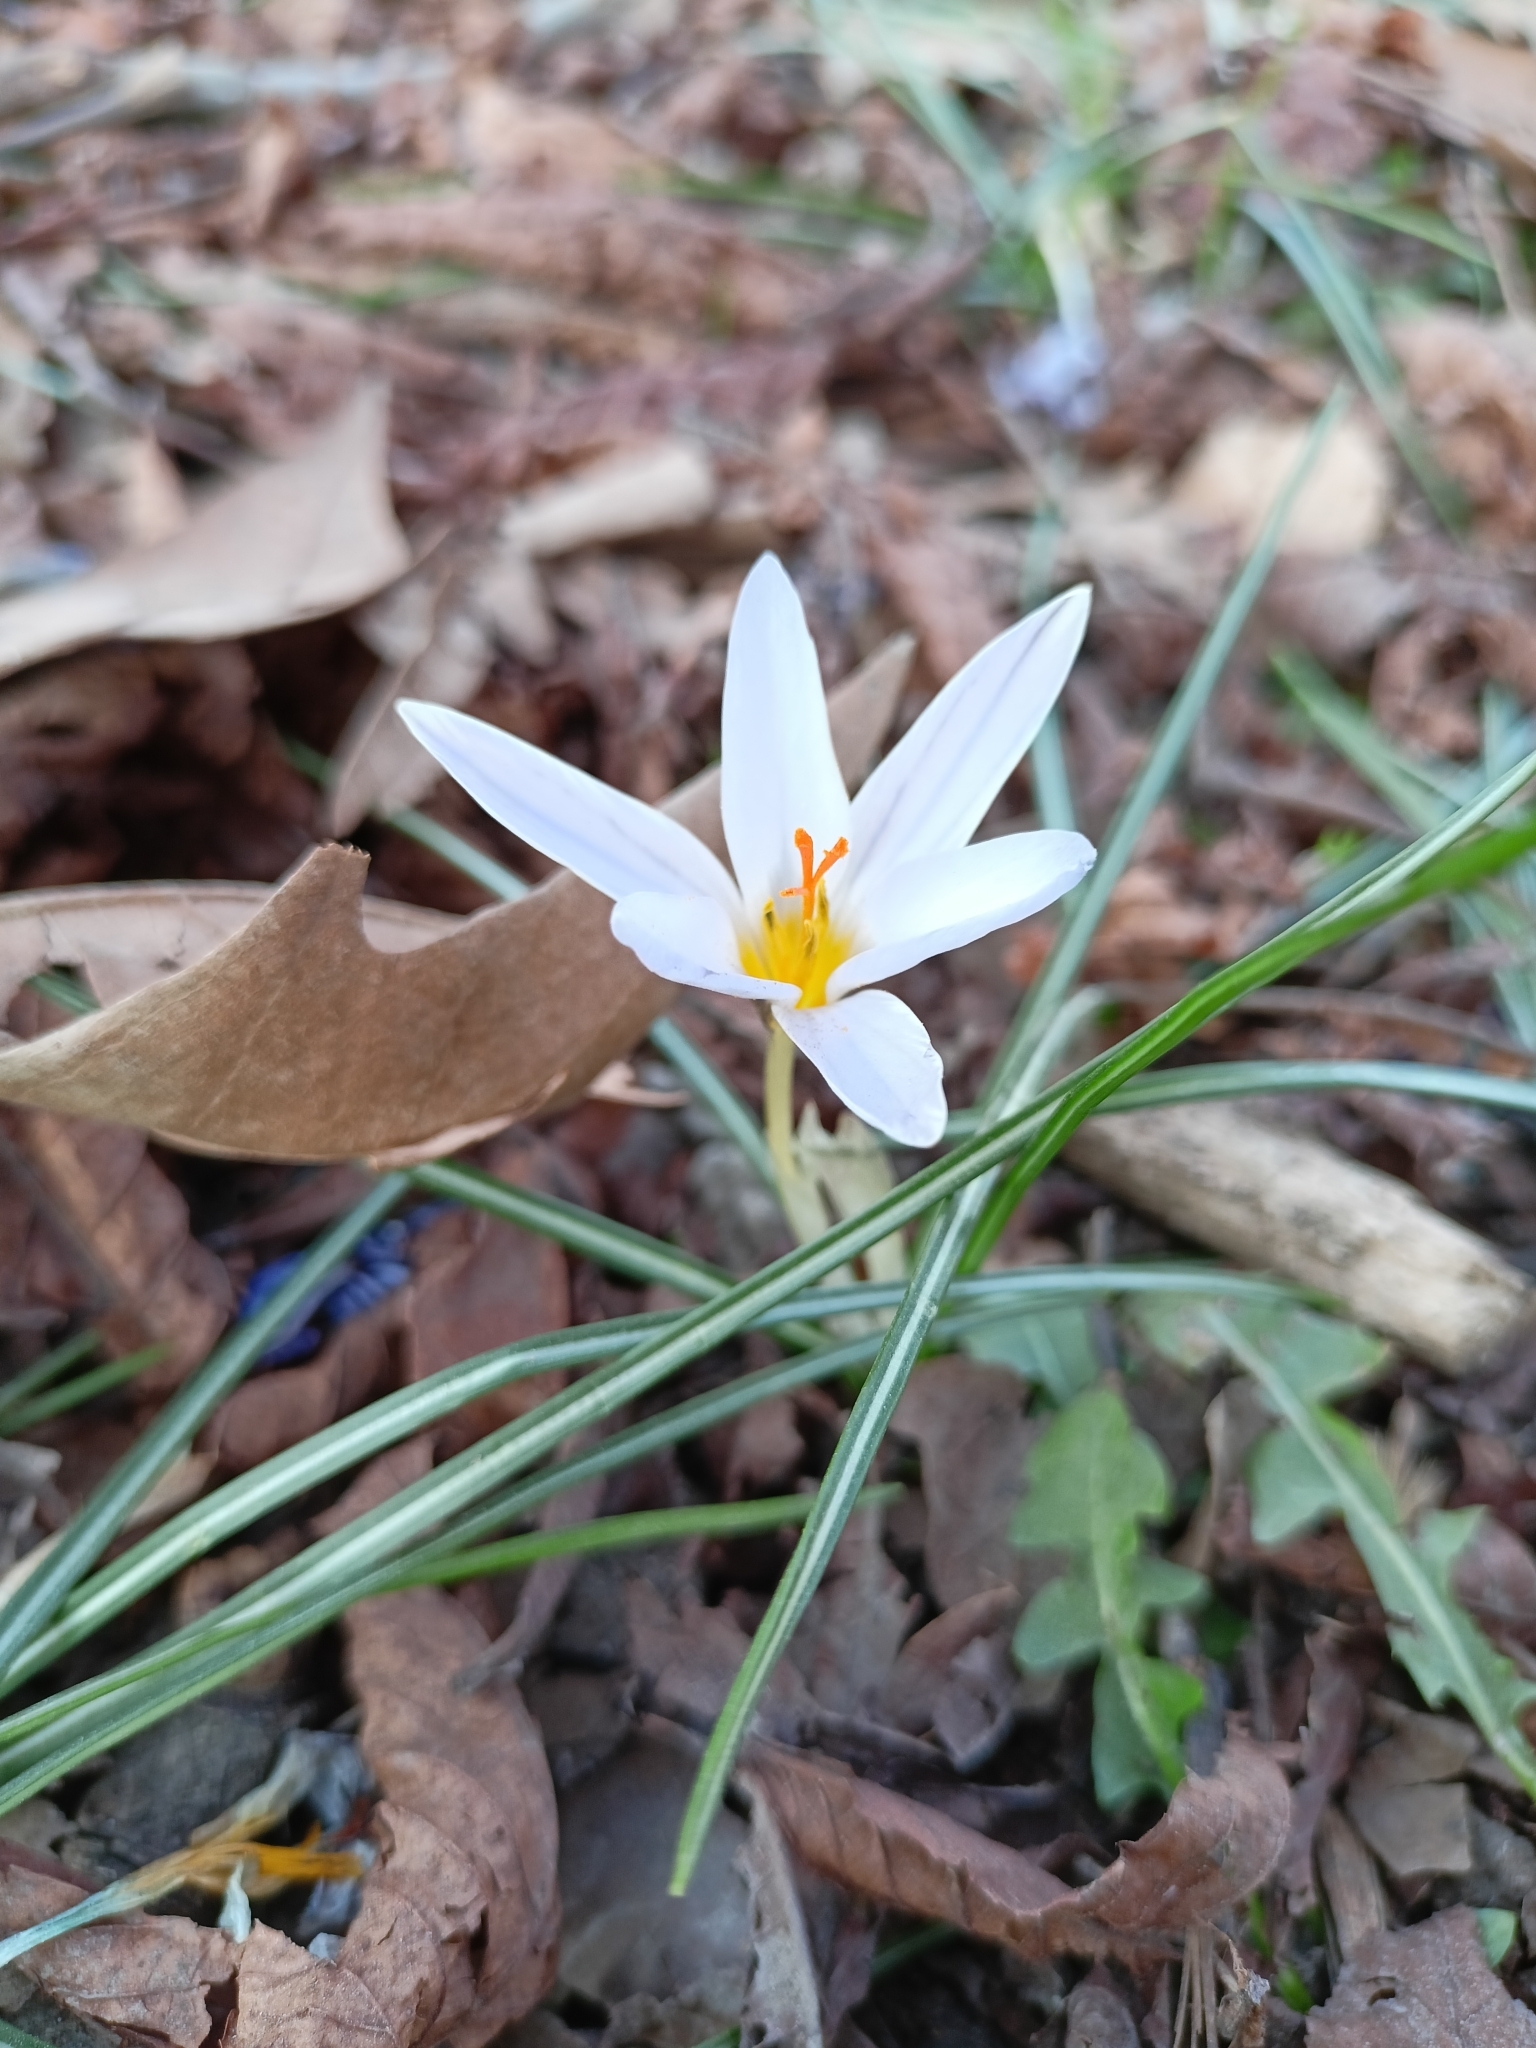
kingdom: Plantae
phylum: Tracheophyta
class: Liliopsida
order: Asparagales
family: Iridaceae
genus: Crocus
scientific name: Crocus biflorus
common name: Silvery crocus
